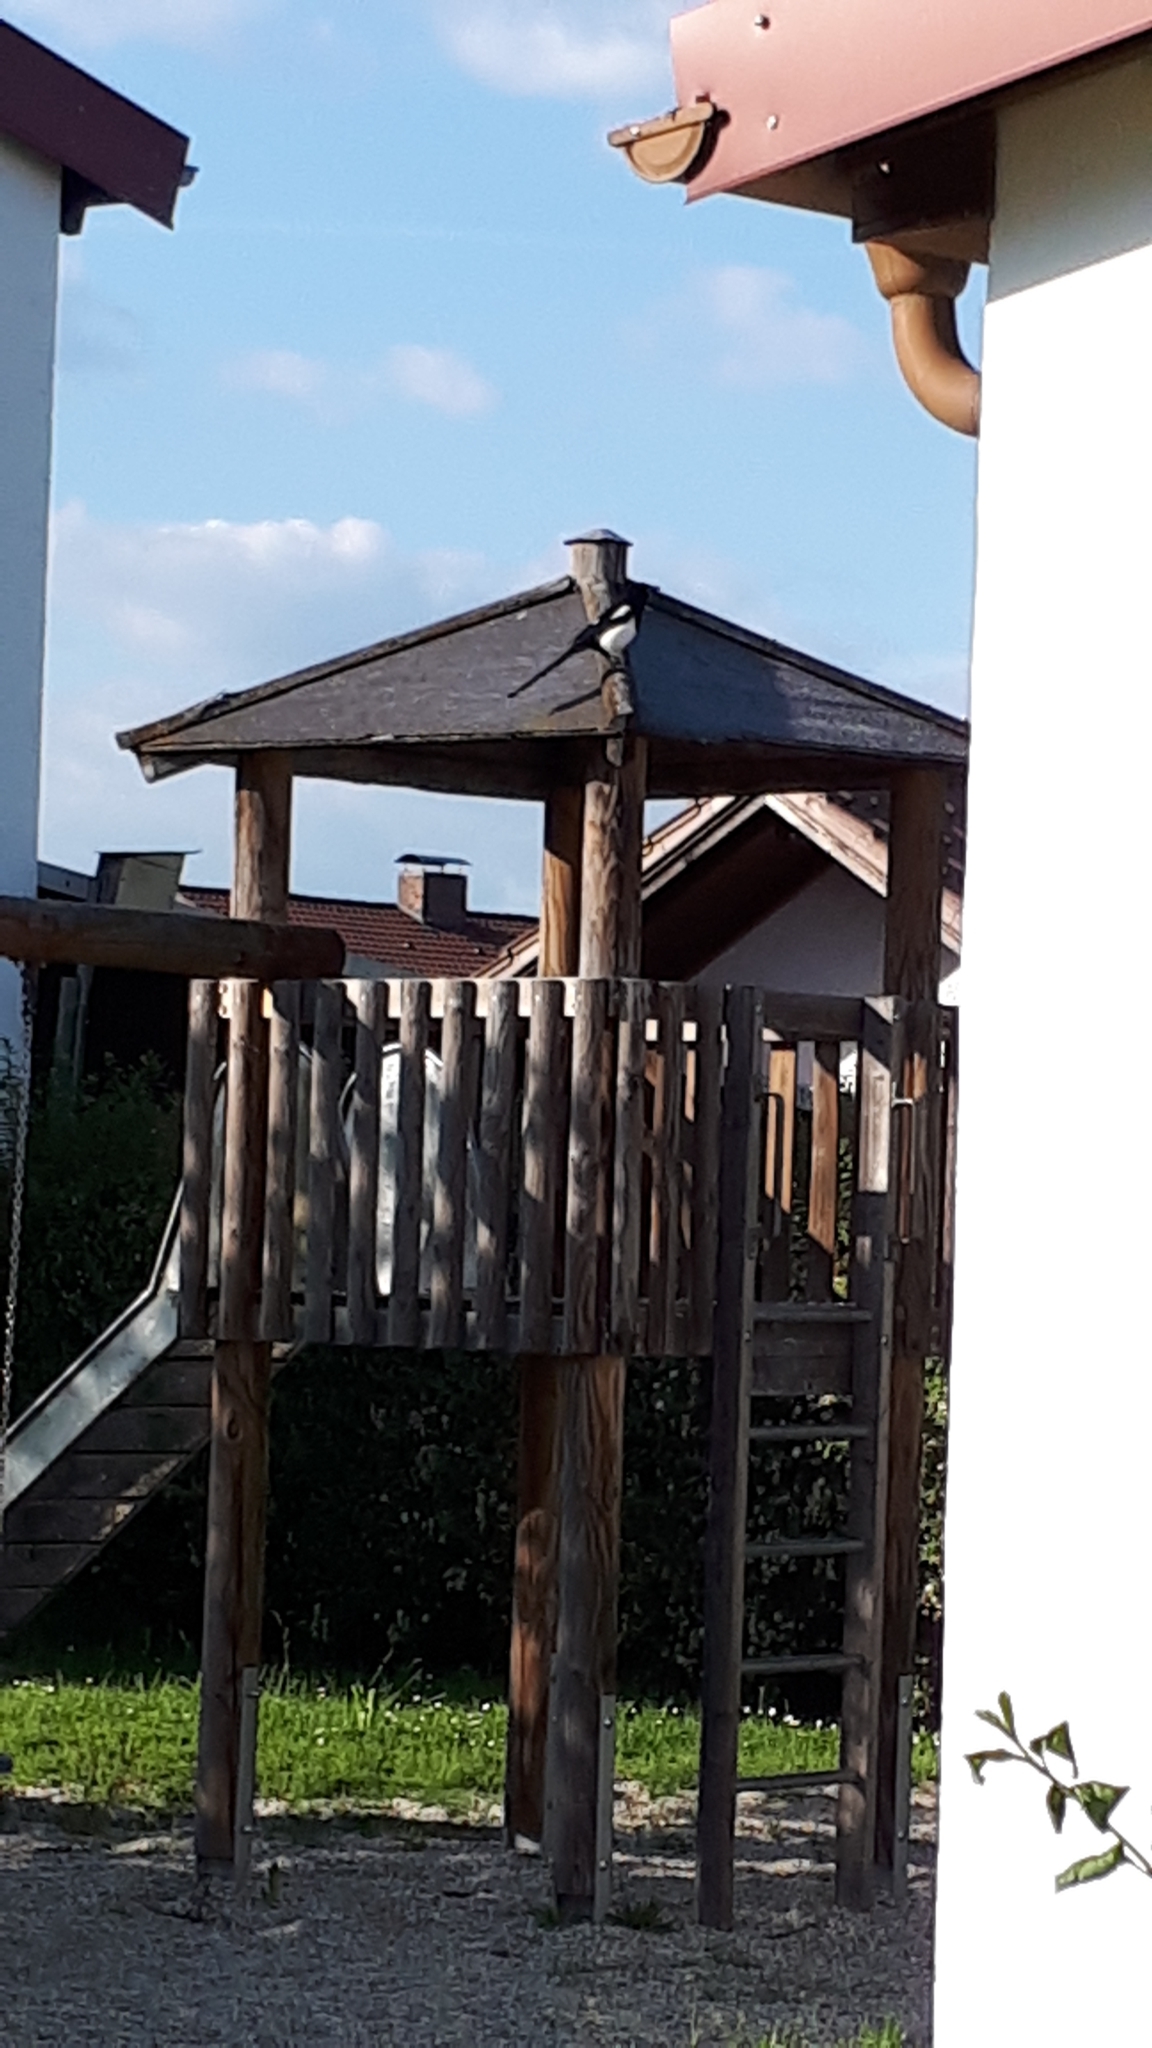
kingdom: Animalia
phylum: Chordata
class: Aves
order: Passeriformes
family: Corvidae
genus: Pica
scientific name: Pica pica
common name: Eurasian magpie
